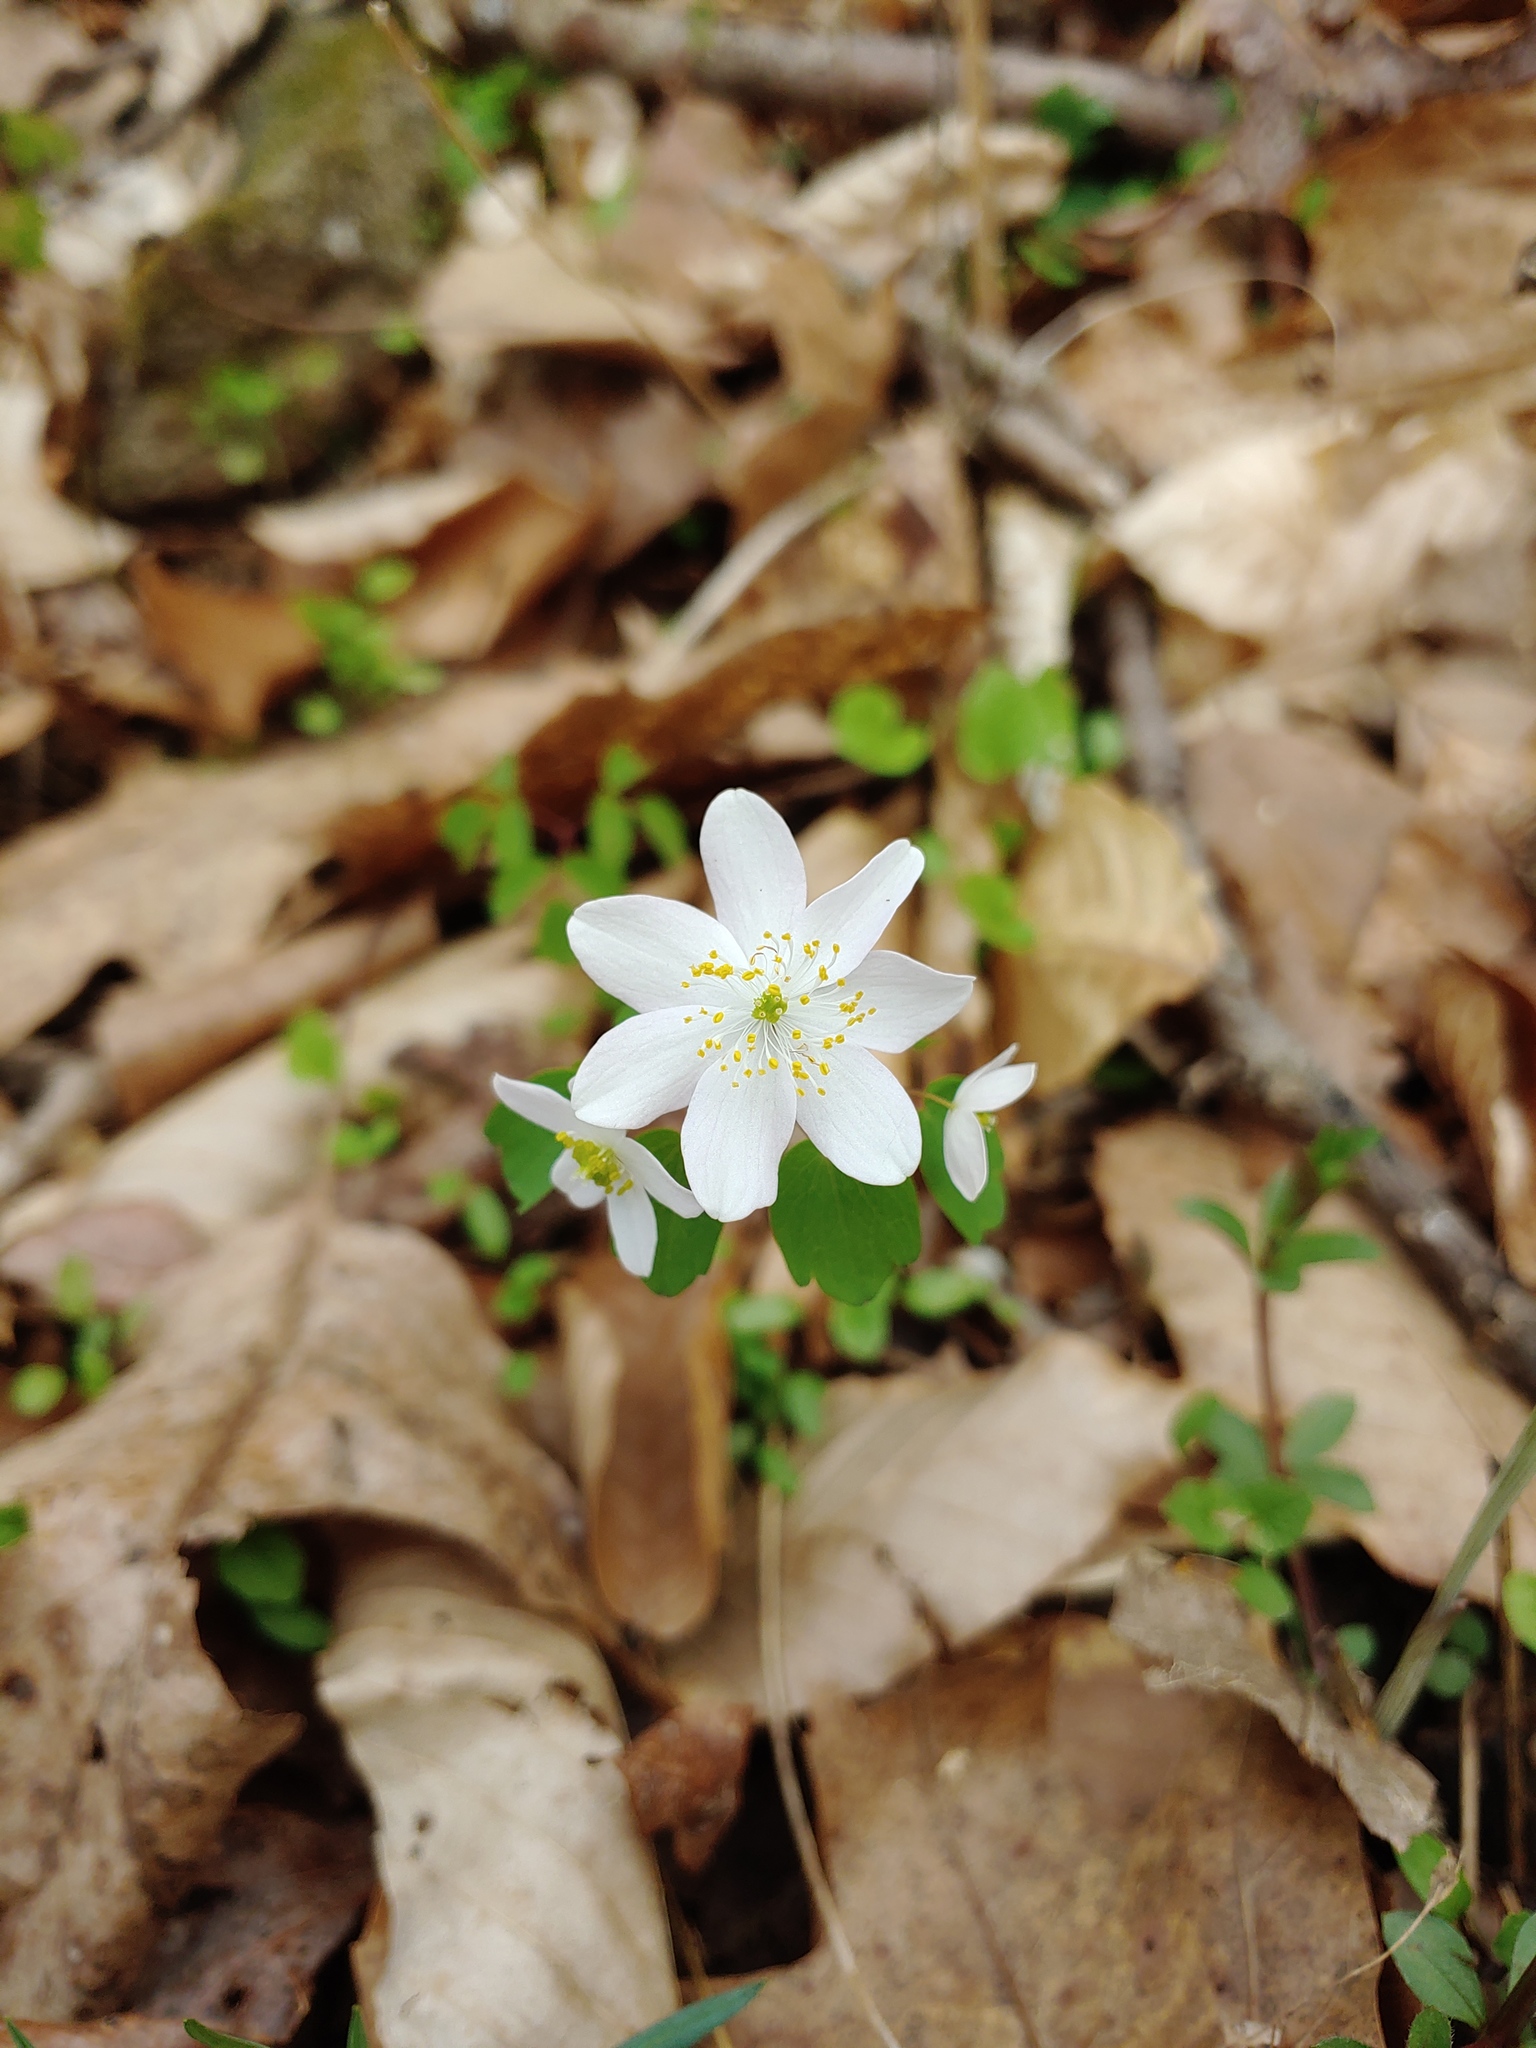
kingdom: Plantae
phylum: Tracheophyta
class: Magnoliopsida
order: Ranunculales
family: Ranunculaceae
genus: Thalictrum
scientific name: Thalictrum thalictroides
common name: Rue-anemone
